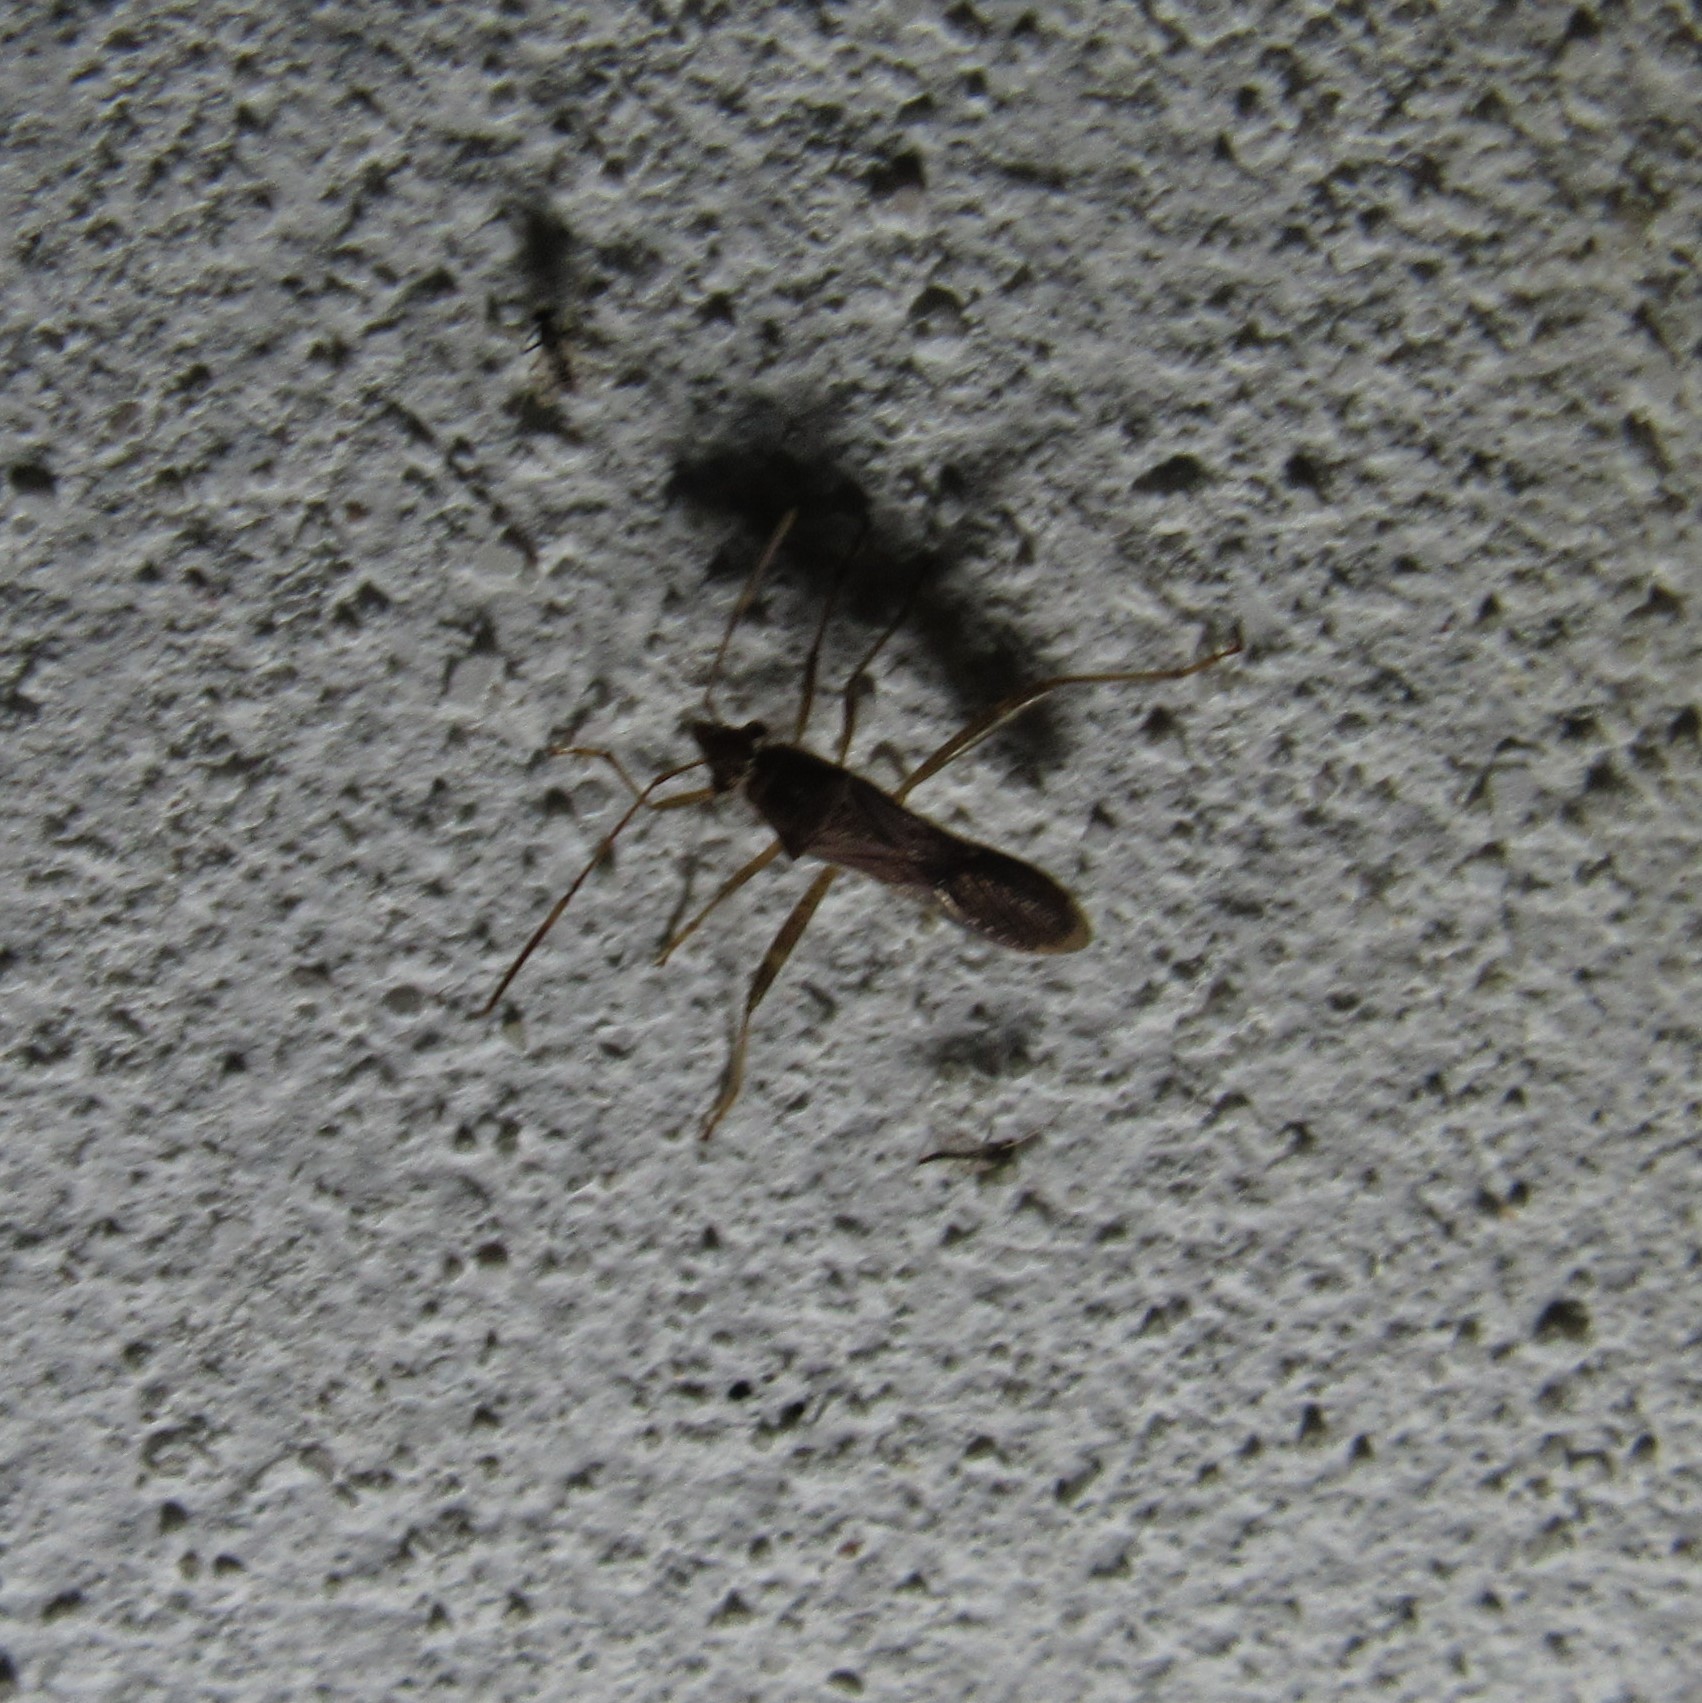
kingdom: Animalia
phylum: Arthropoda
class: Insecta
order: Hemiptera
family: Alydidae
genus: Burtinus
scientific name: Burtinus notatipennis
